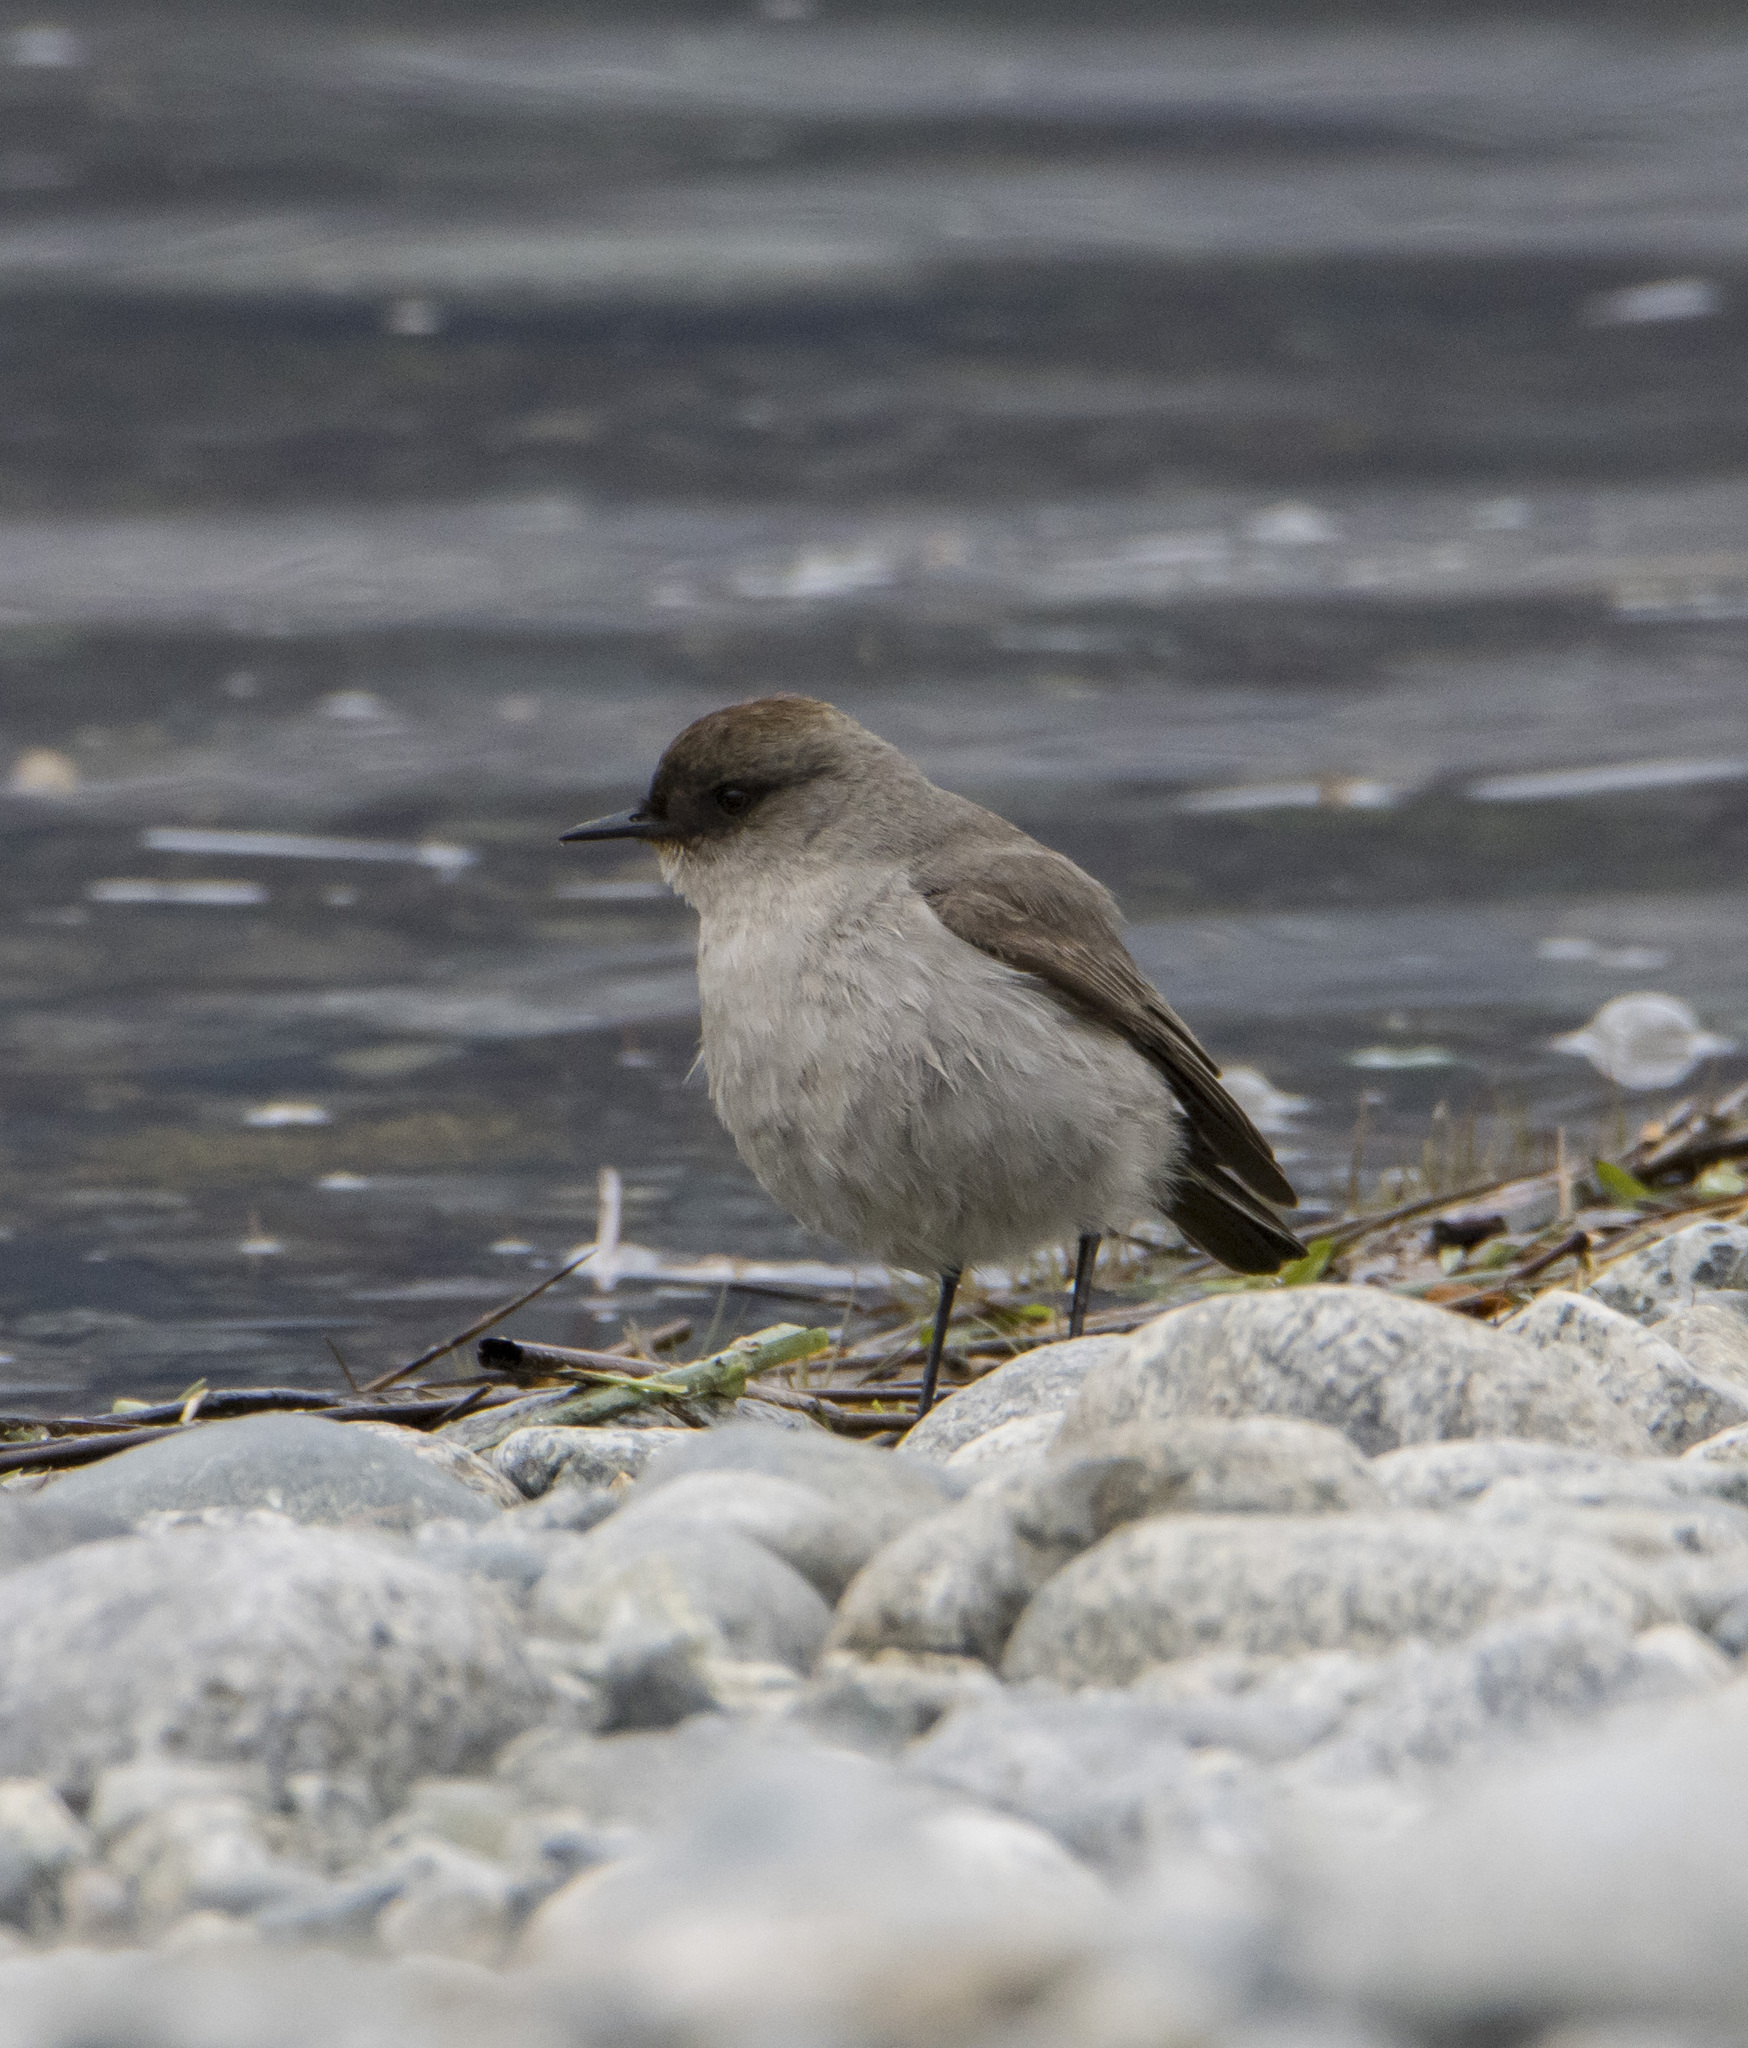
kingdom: Animalia
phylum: Chordata
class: Aves
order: Passeriformes
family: Tyrannidae
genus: Muscisaxicola
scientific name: Muscisaxicola maclovianus
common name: Dark-faced ground tyrant
